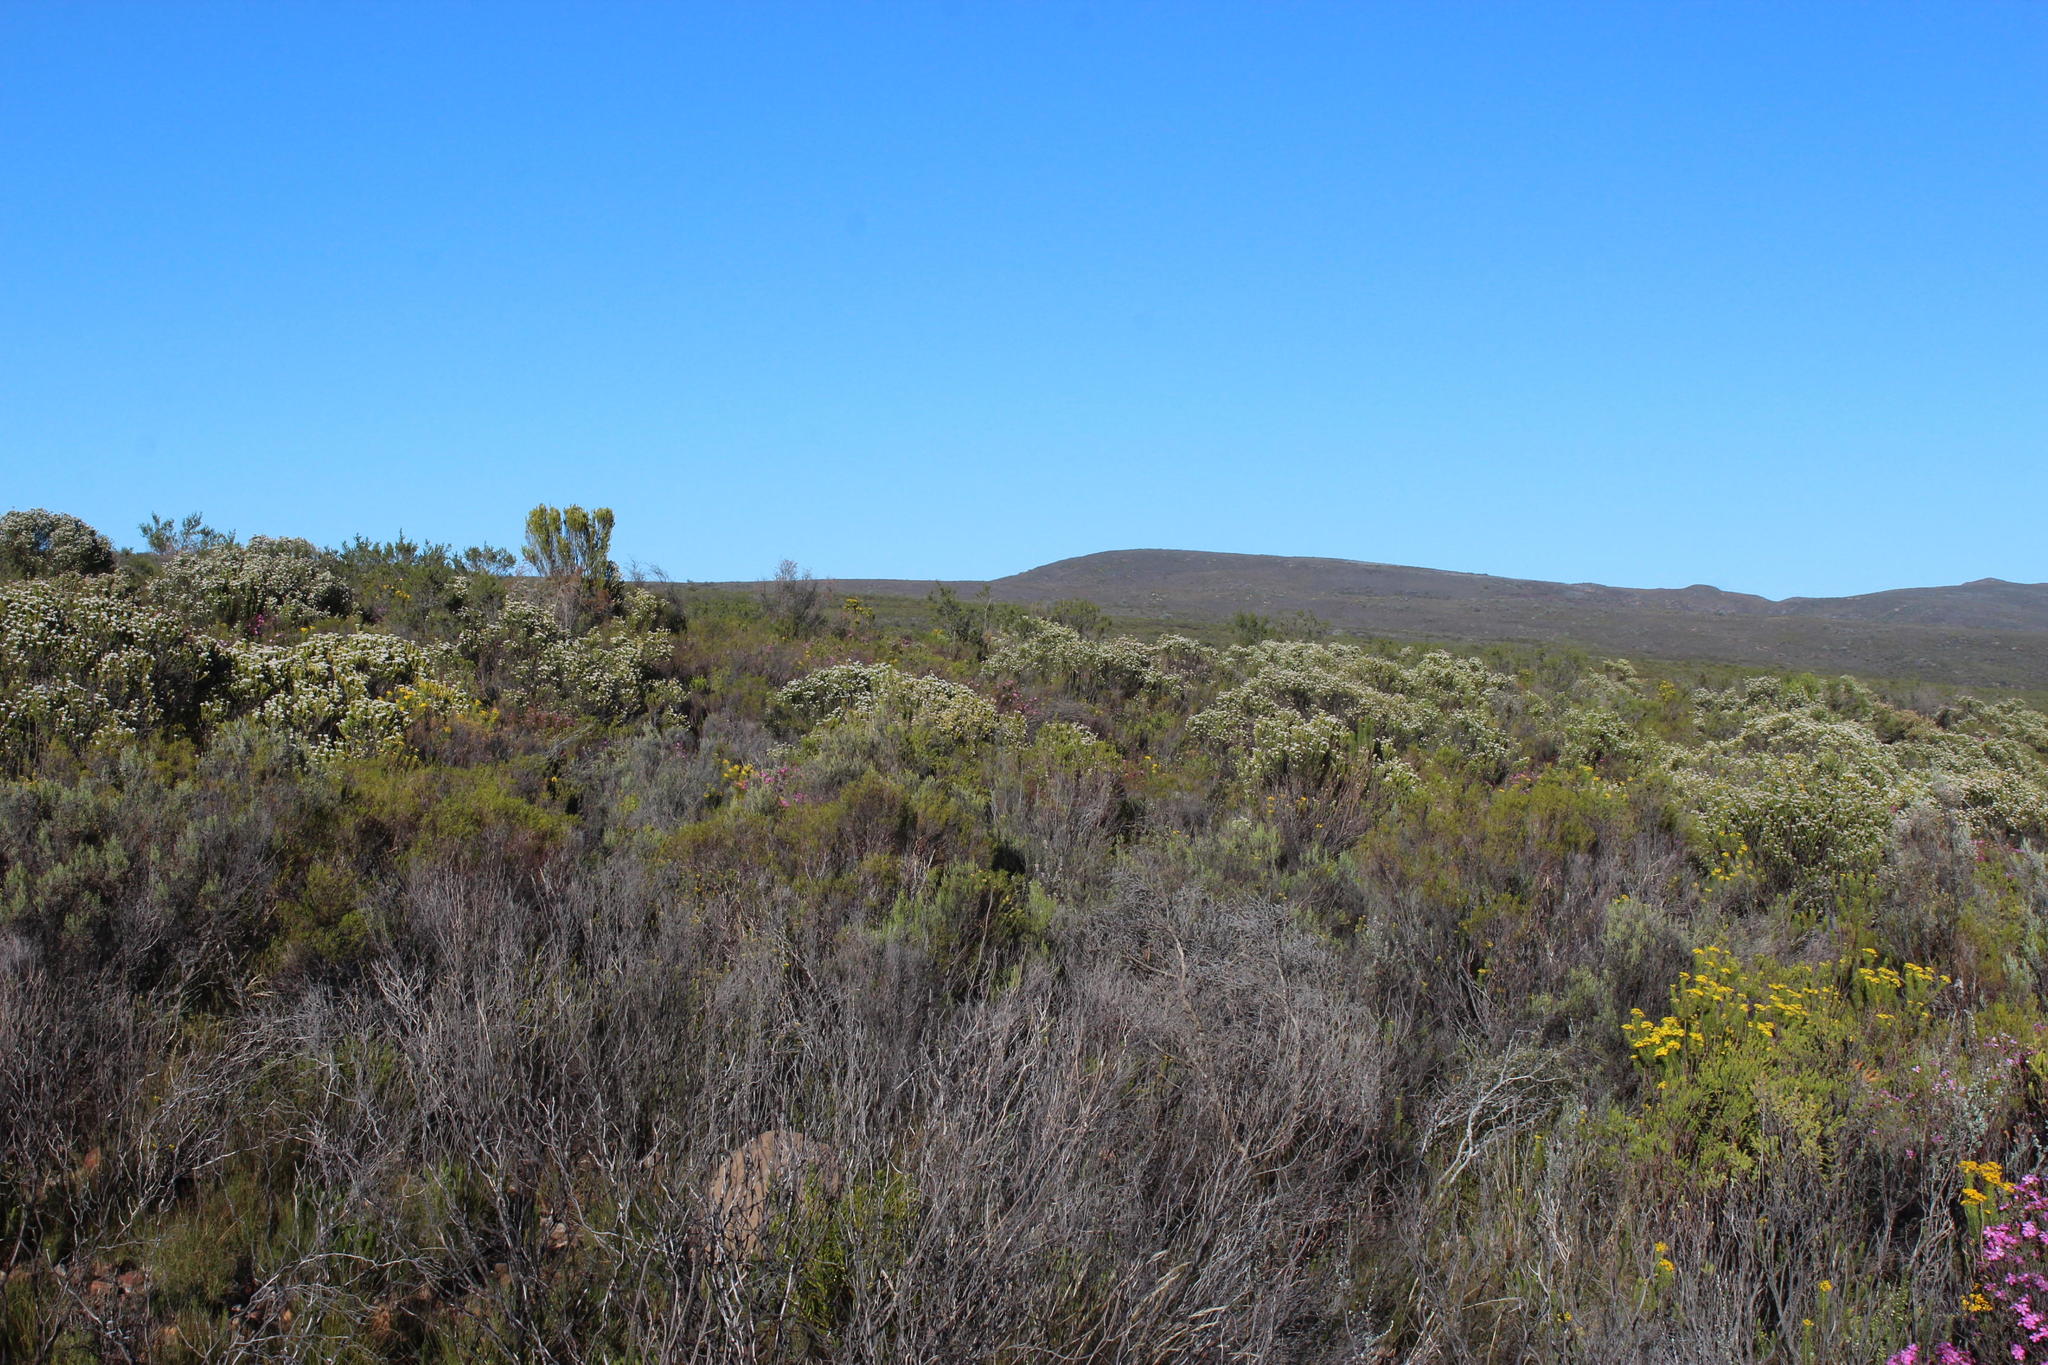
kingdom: Plantae
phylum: Tracheophyta
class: Magnoliopsida
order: Asterales
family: Asteraceae
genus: Metalasia
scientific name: Metalasia pallida
